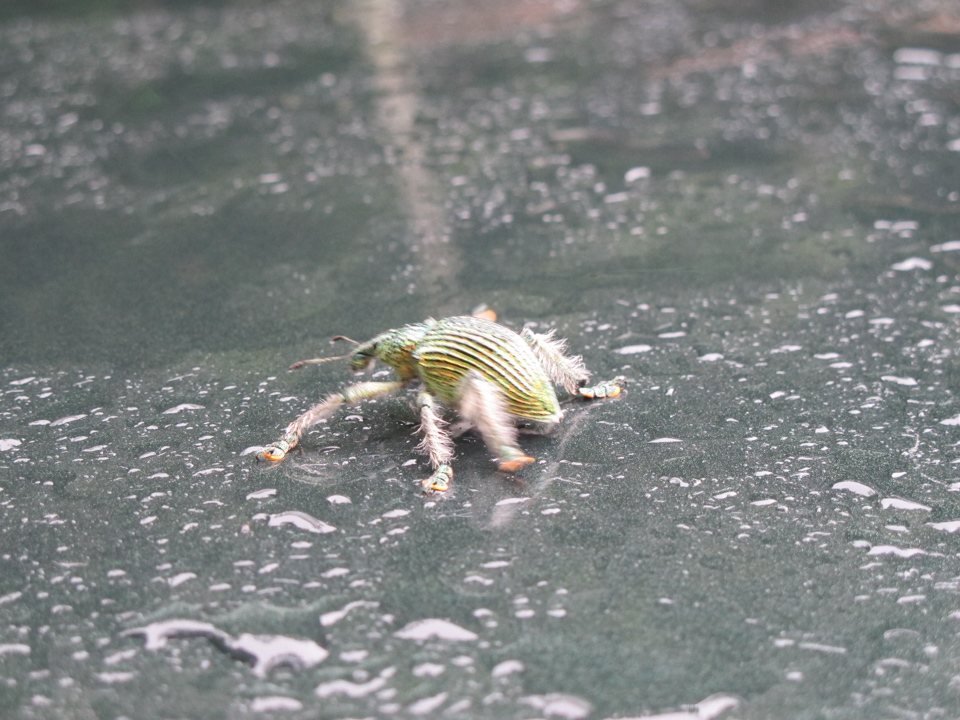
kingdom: Animalia
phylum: Arthropoda
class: Insecta
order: Coleoptera
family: Curculionidae
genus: Entimus
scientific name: Entimus nobilis
